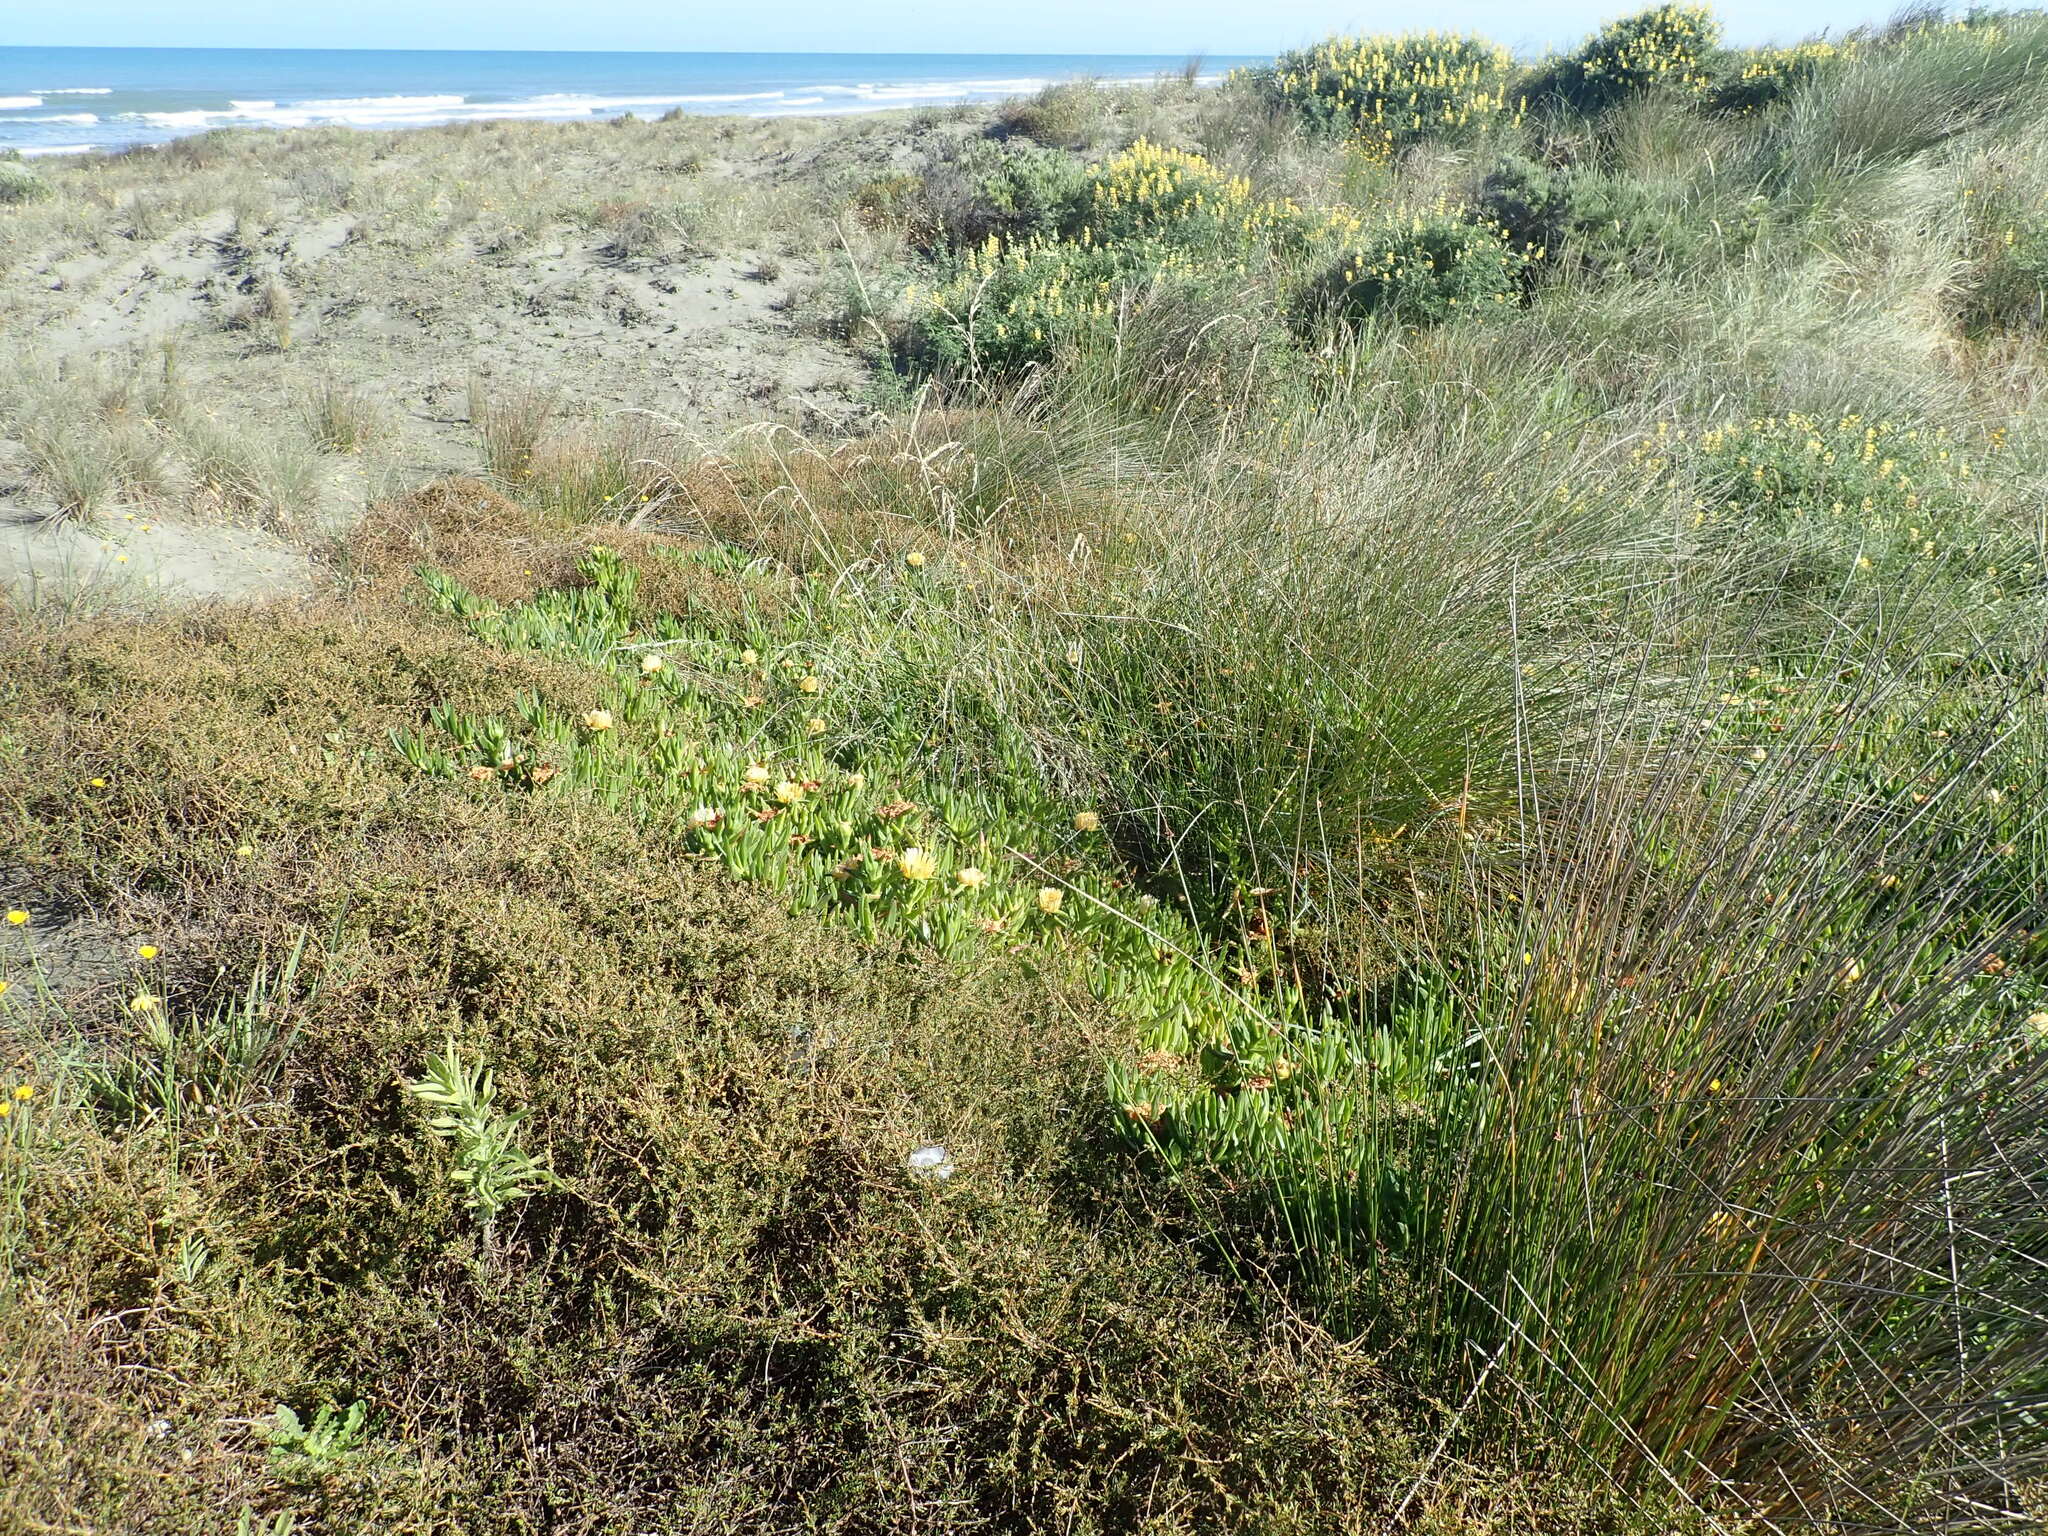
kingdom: Plantae
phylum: Tracheophyta
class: Magnoliopsida
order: Caryophyllales
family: Aizoaceae
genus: Carpobrotus
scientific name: Carpobrotus edulis
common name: Hottentot-fig
